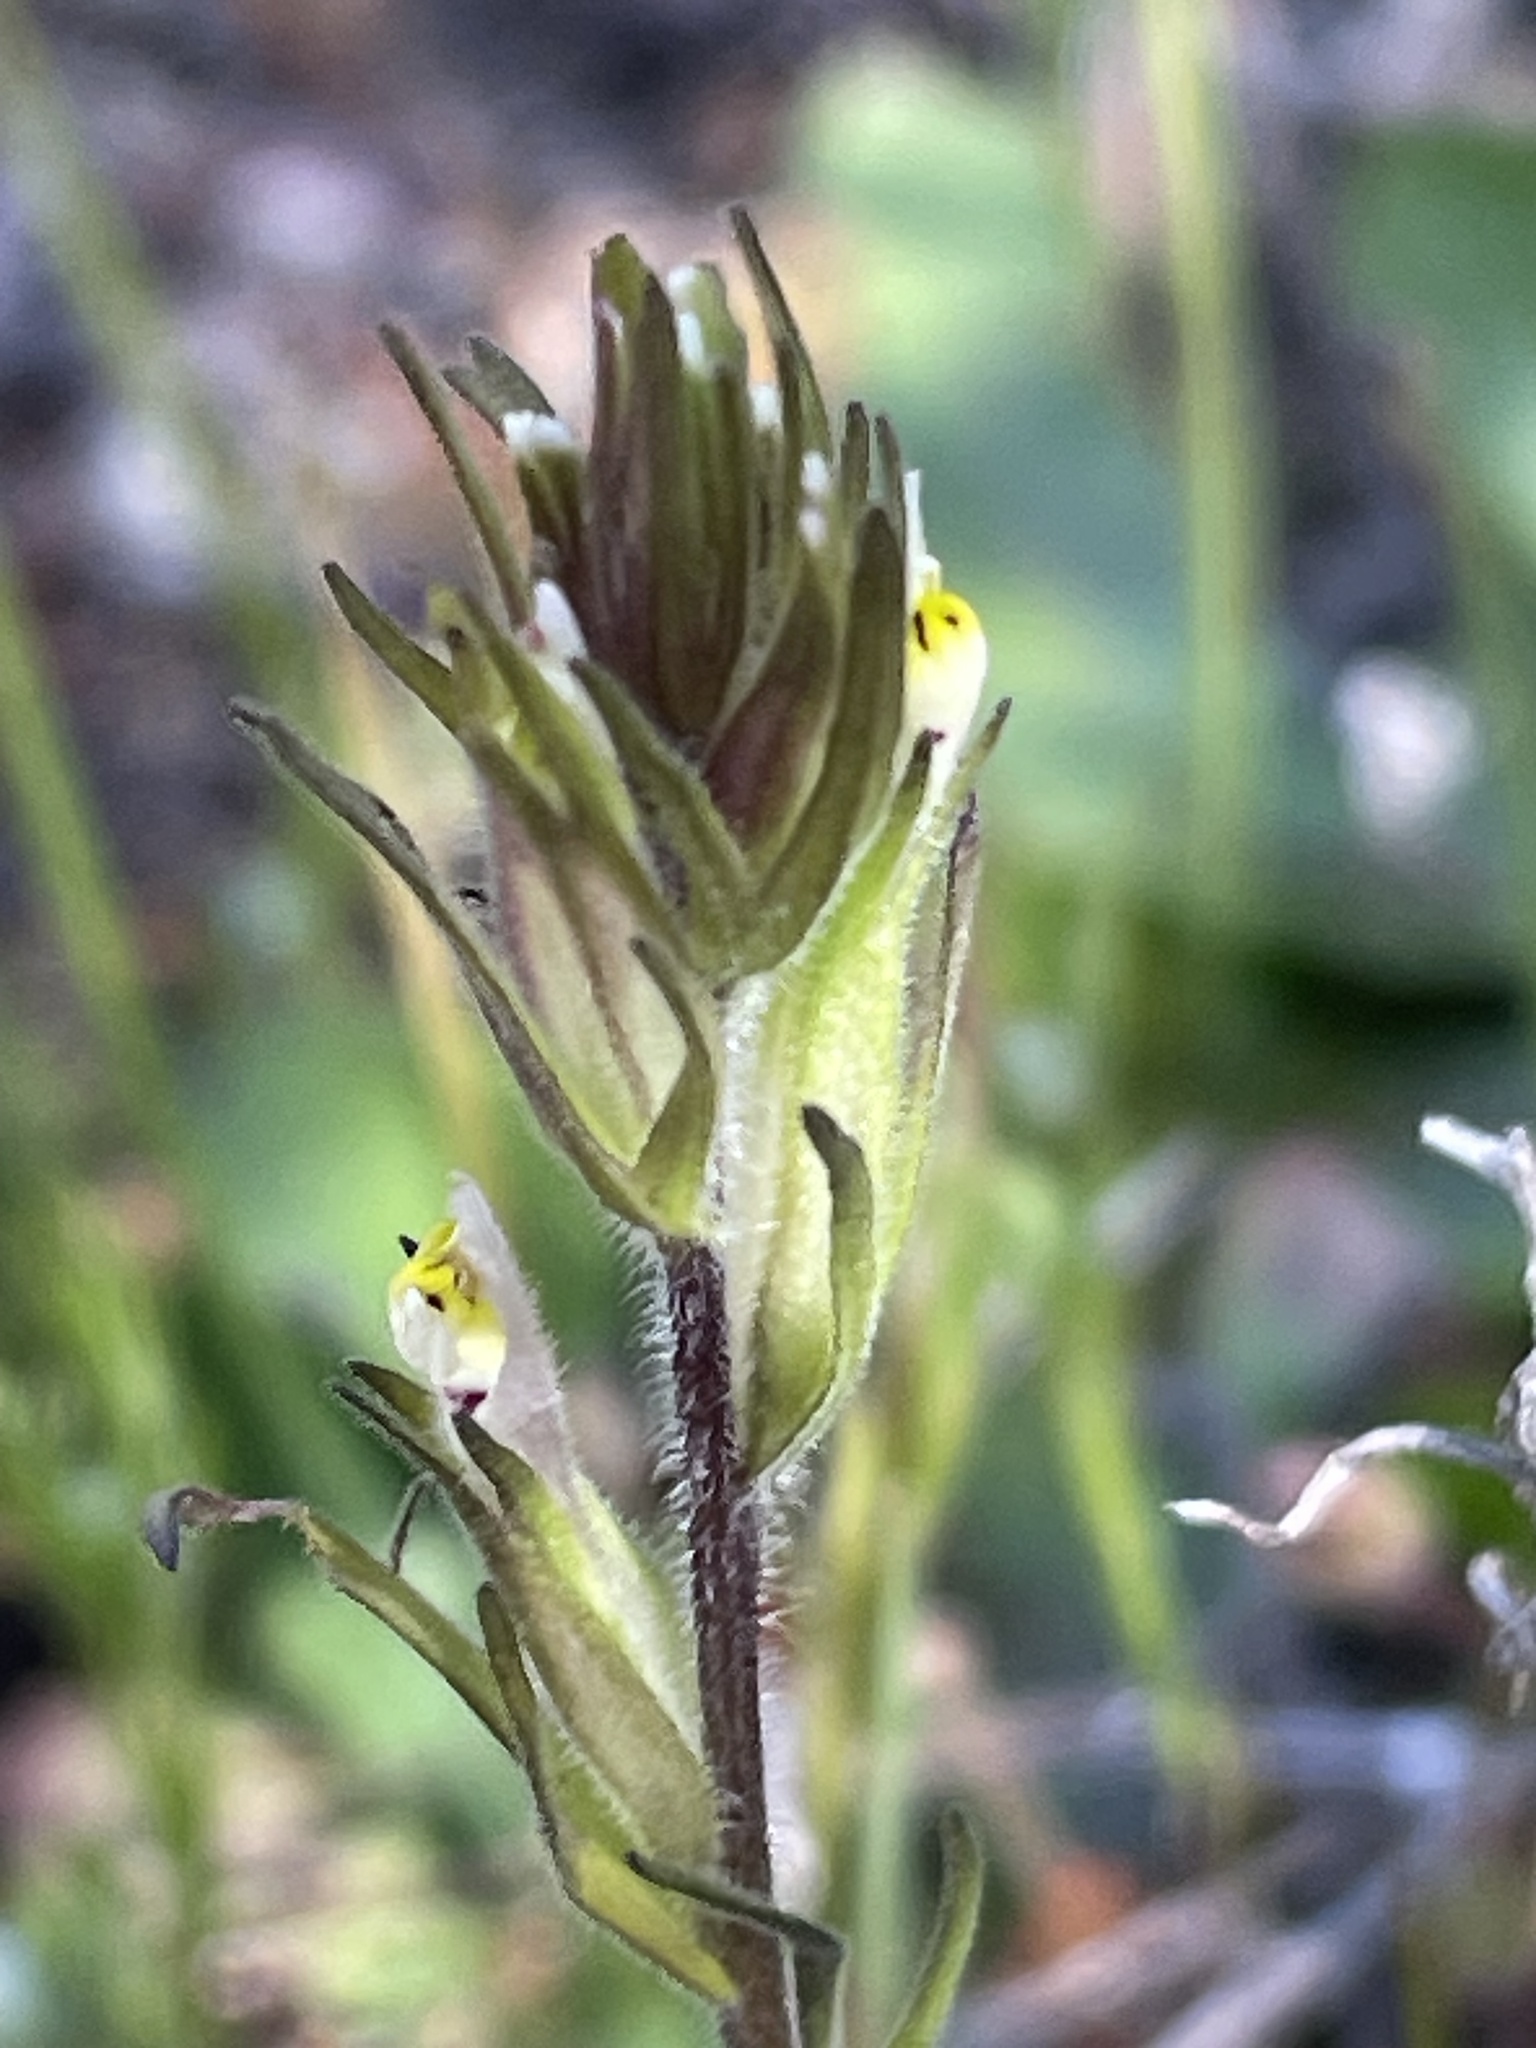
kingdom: Plantae
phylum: Tracheophyta
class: Magnoliopsida
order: Lamiales
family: Orobanchaceae
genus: Castilleja
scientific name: Castilleja attenuata
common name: Valley tassels
